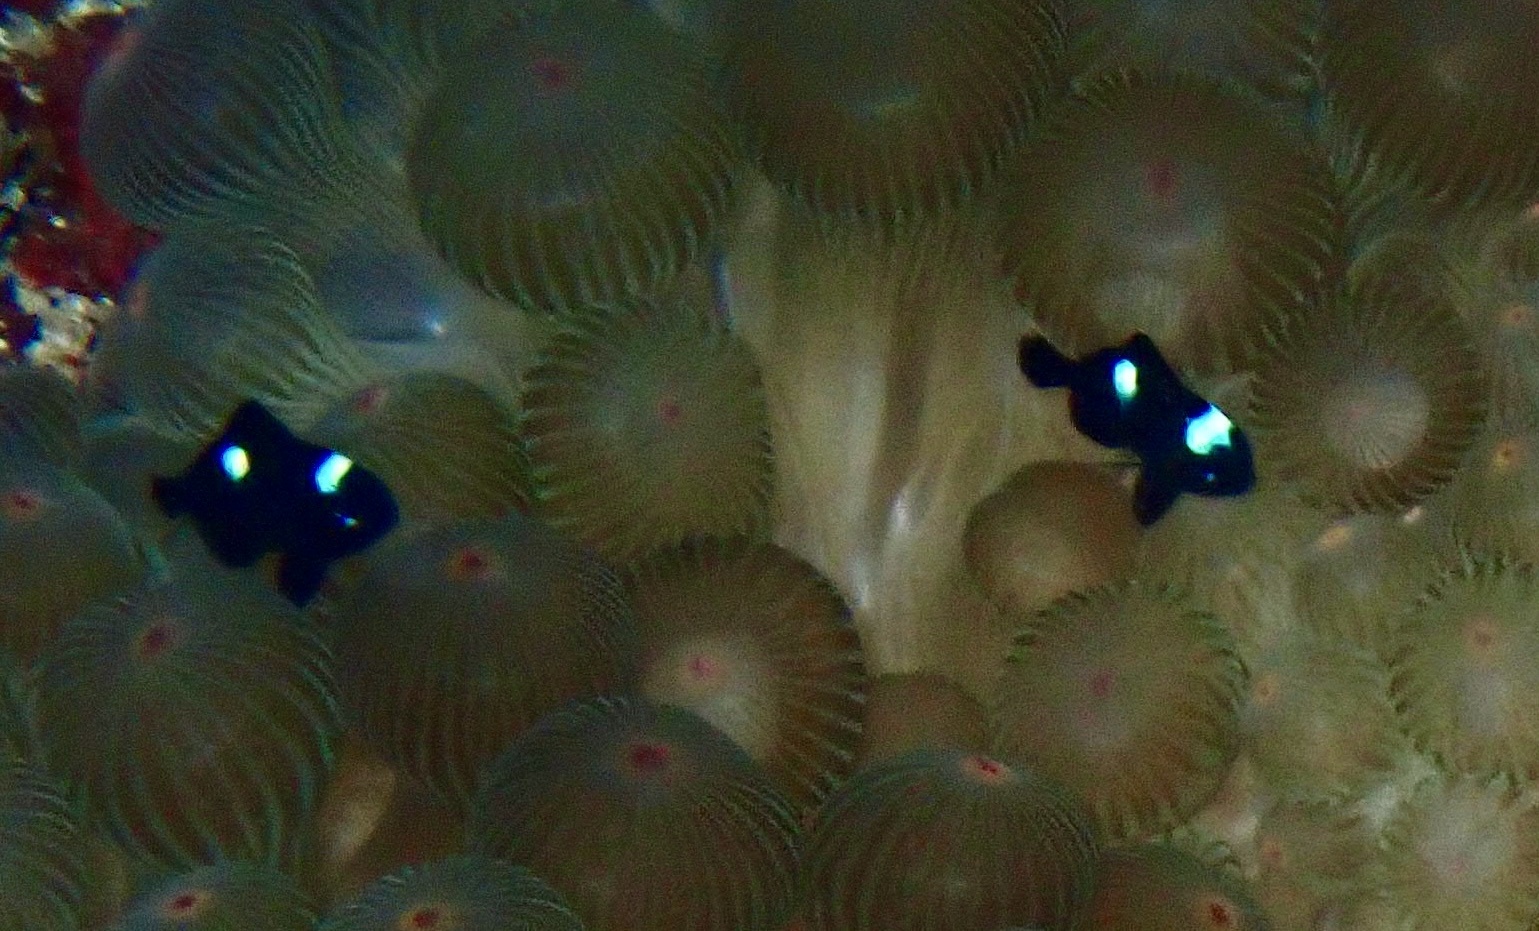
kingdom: Animalia
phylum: Chordata
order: Perciformes
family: Pomacentridae
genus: Dascyllus
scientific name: Dascyllus trimaculatus
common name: Threespot dascyllus
